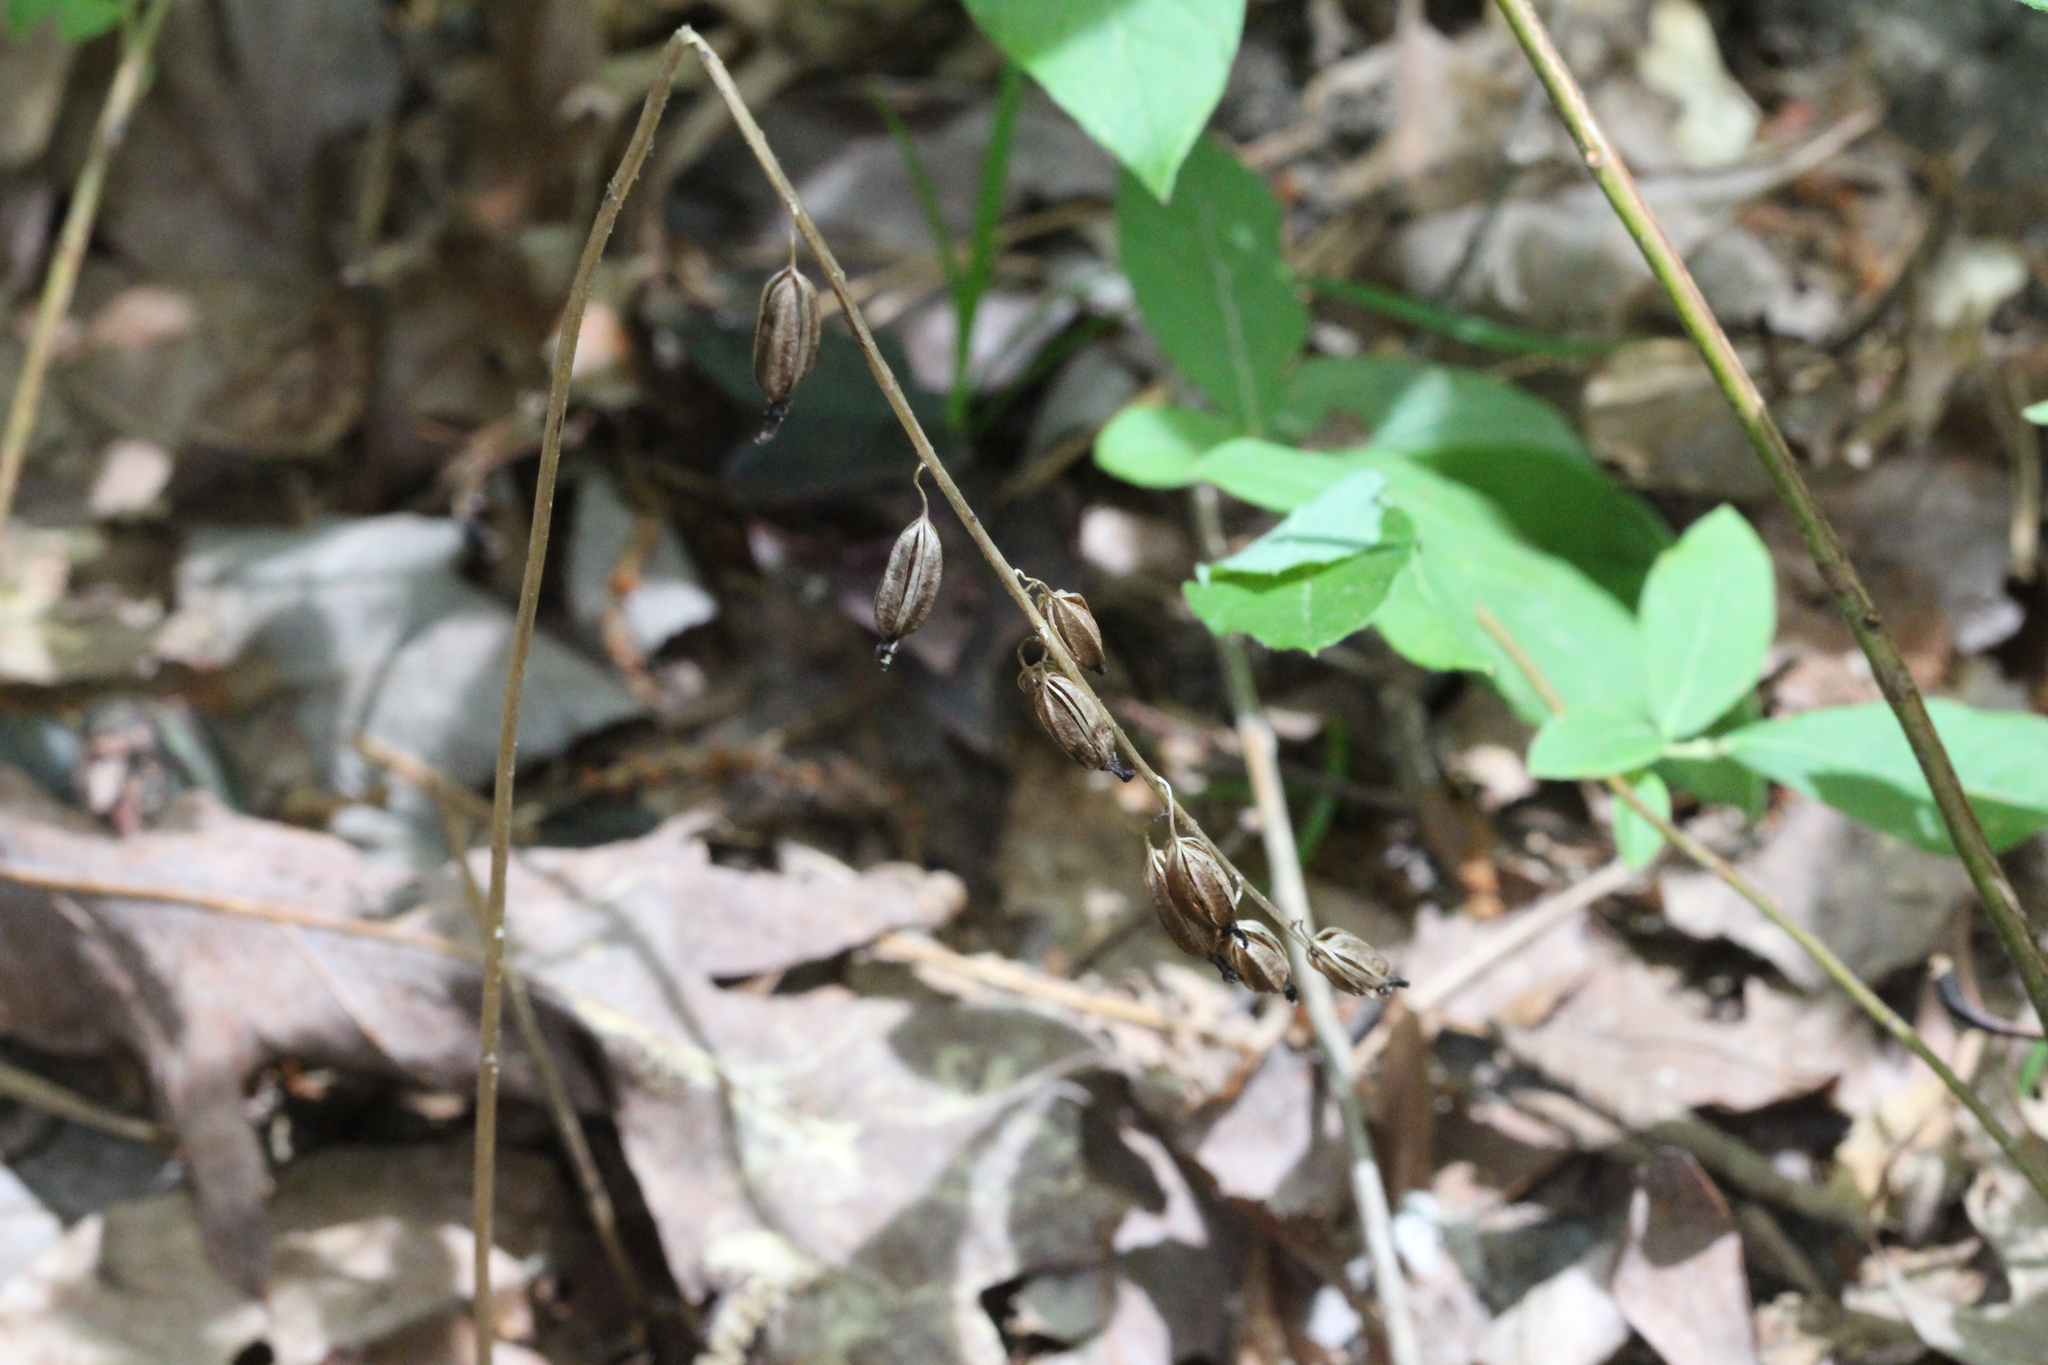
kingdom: Plantae
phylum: Tracheophyta
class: Liliopsida
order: Asparagales
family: Orchidaceae
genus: Tipularia
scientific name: Tipularia discolor
